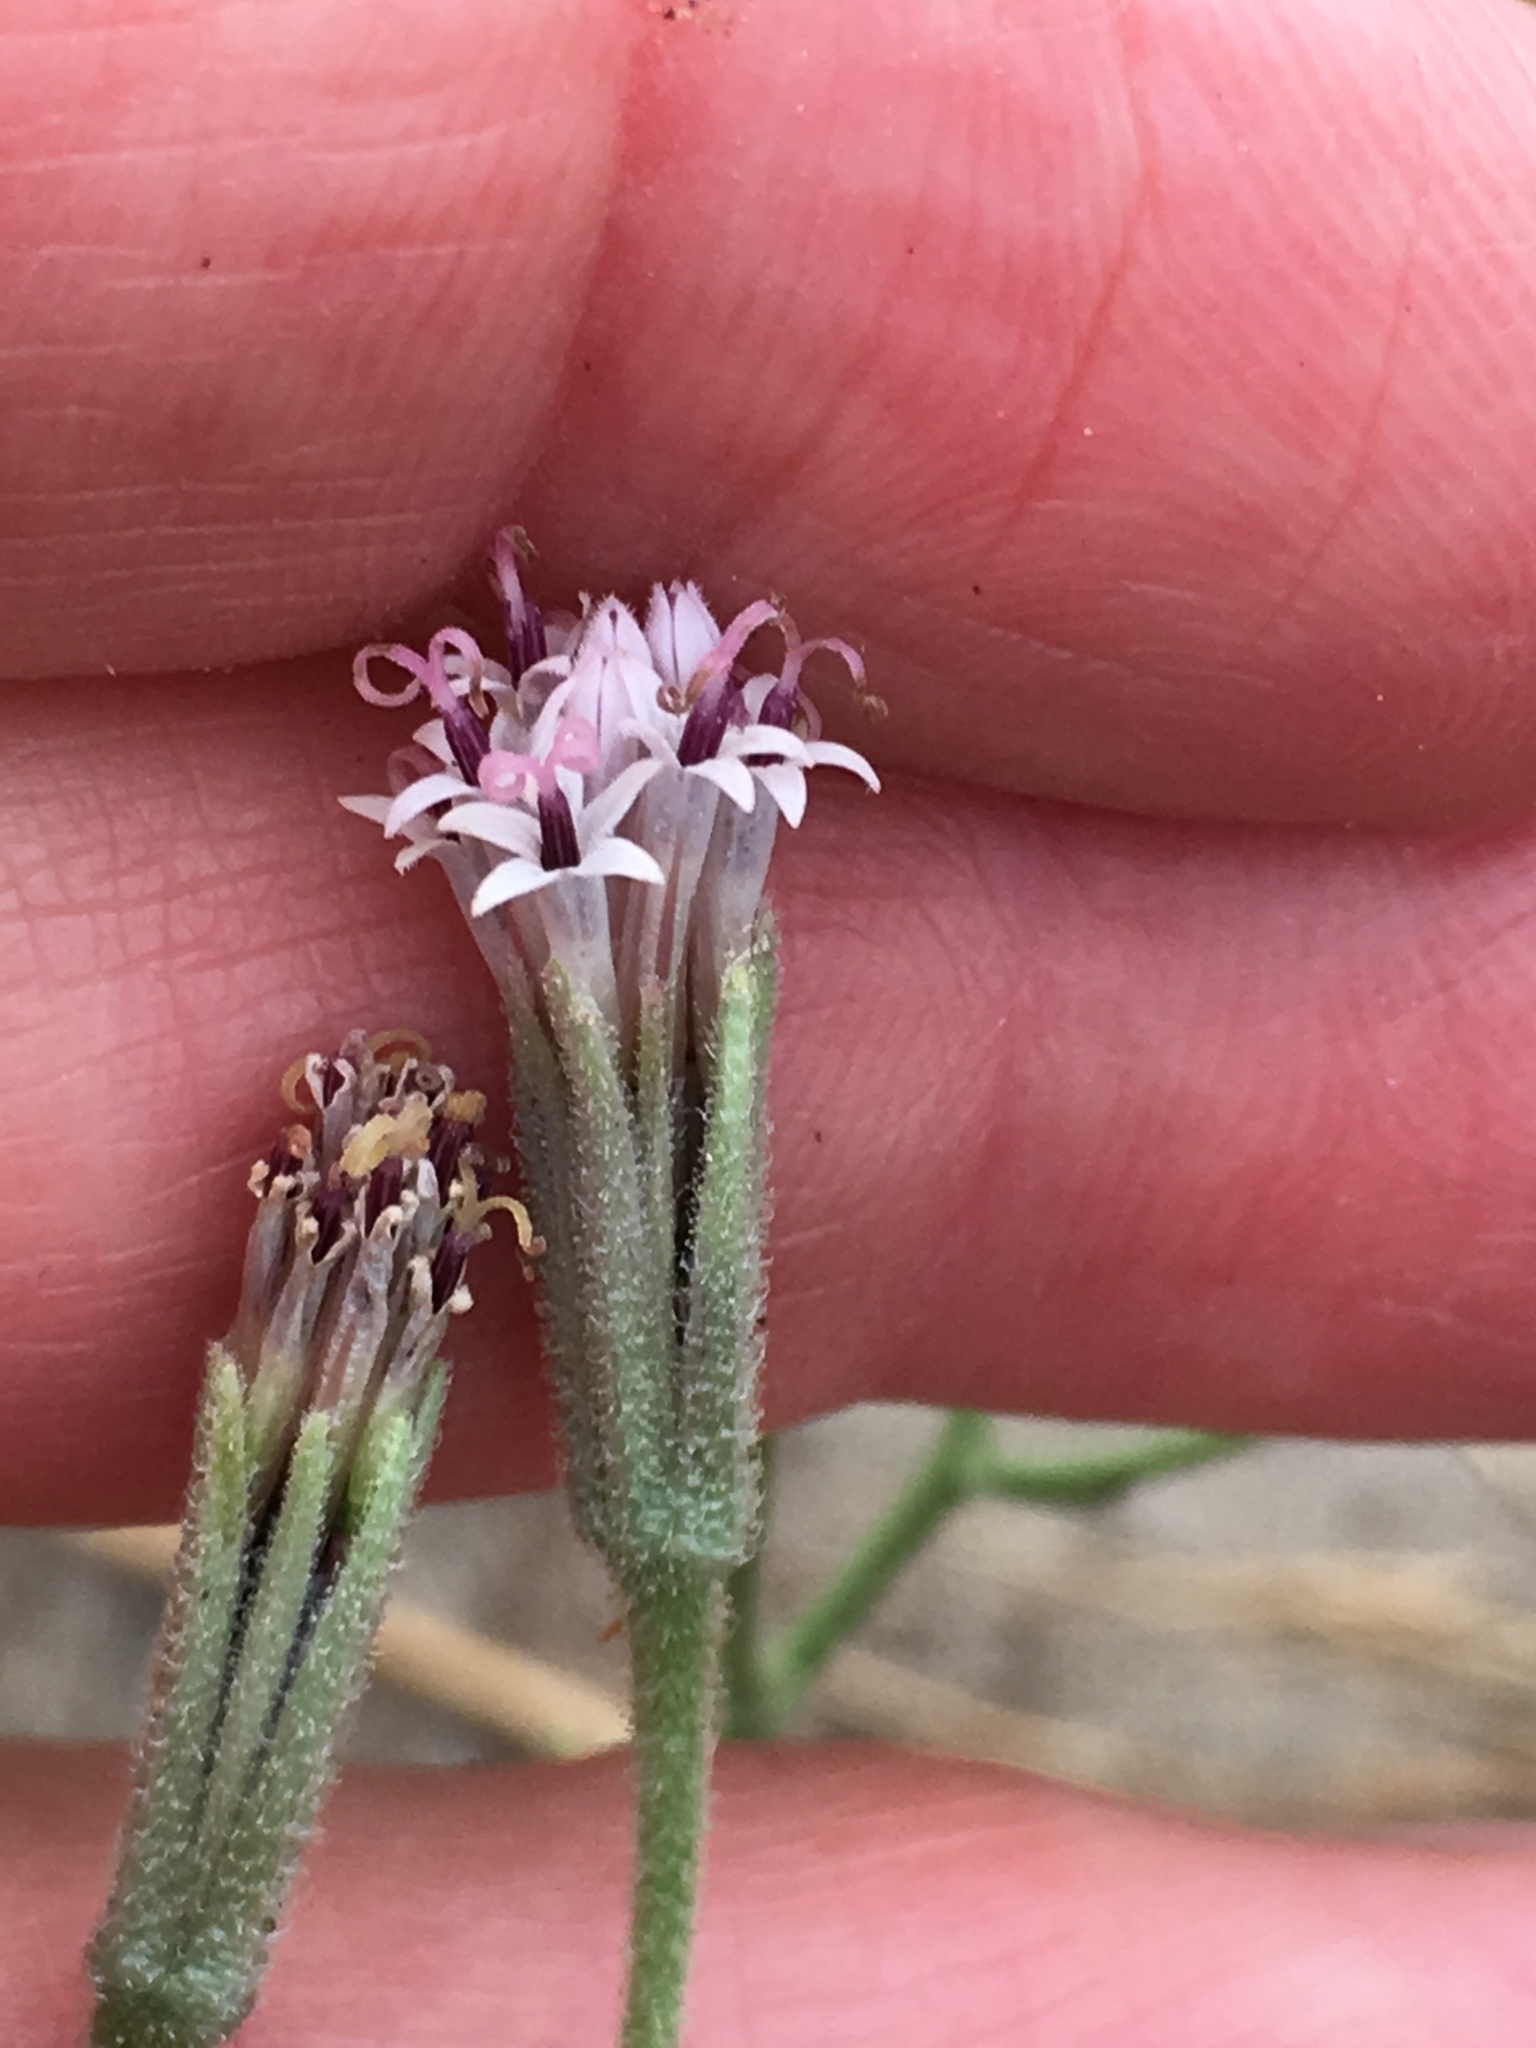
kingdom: Plantae
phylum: Tracheophyta
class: Magnoliopsida
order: Asterales
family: Asteraceae
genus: Palafoxia
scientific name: Palafoxia arida
